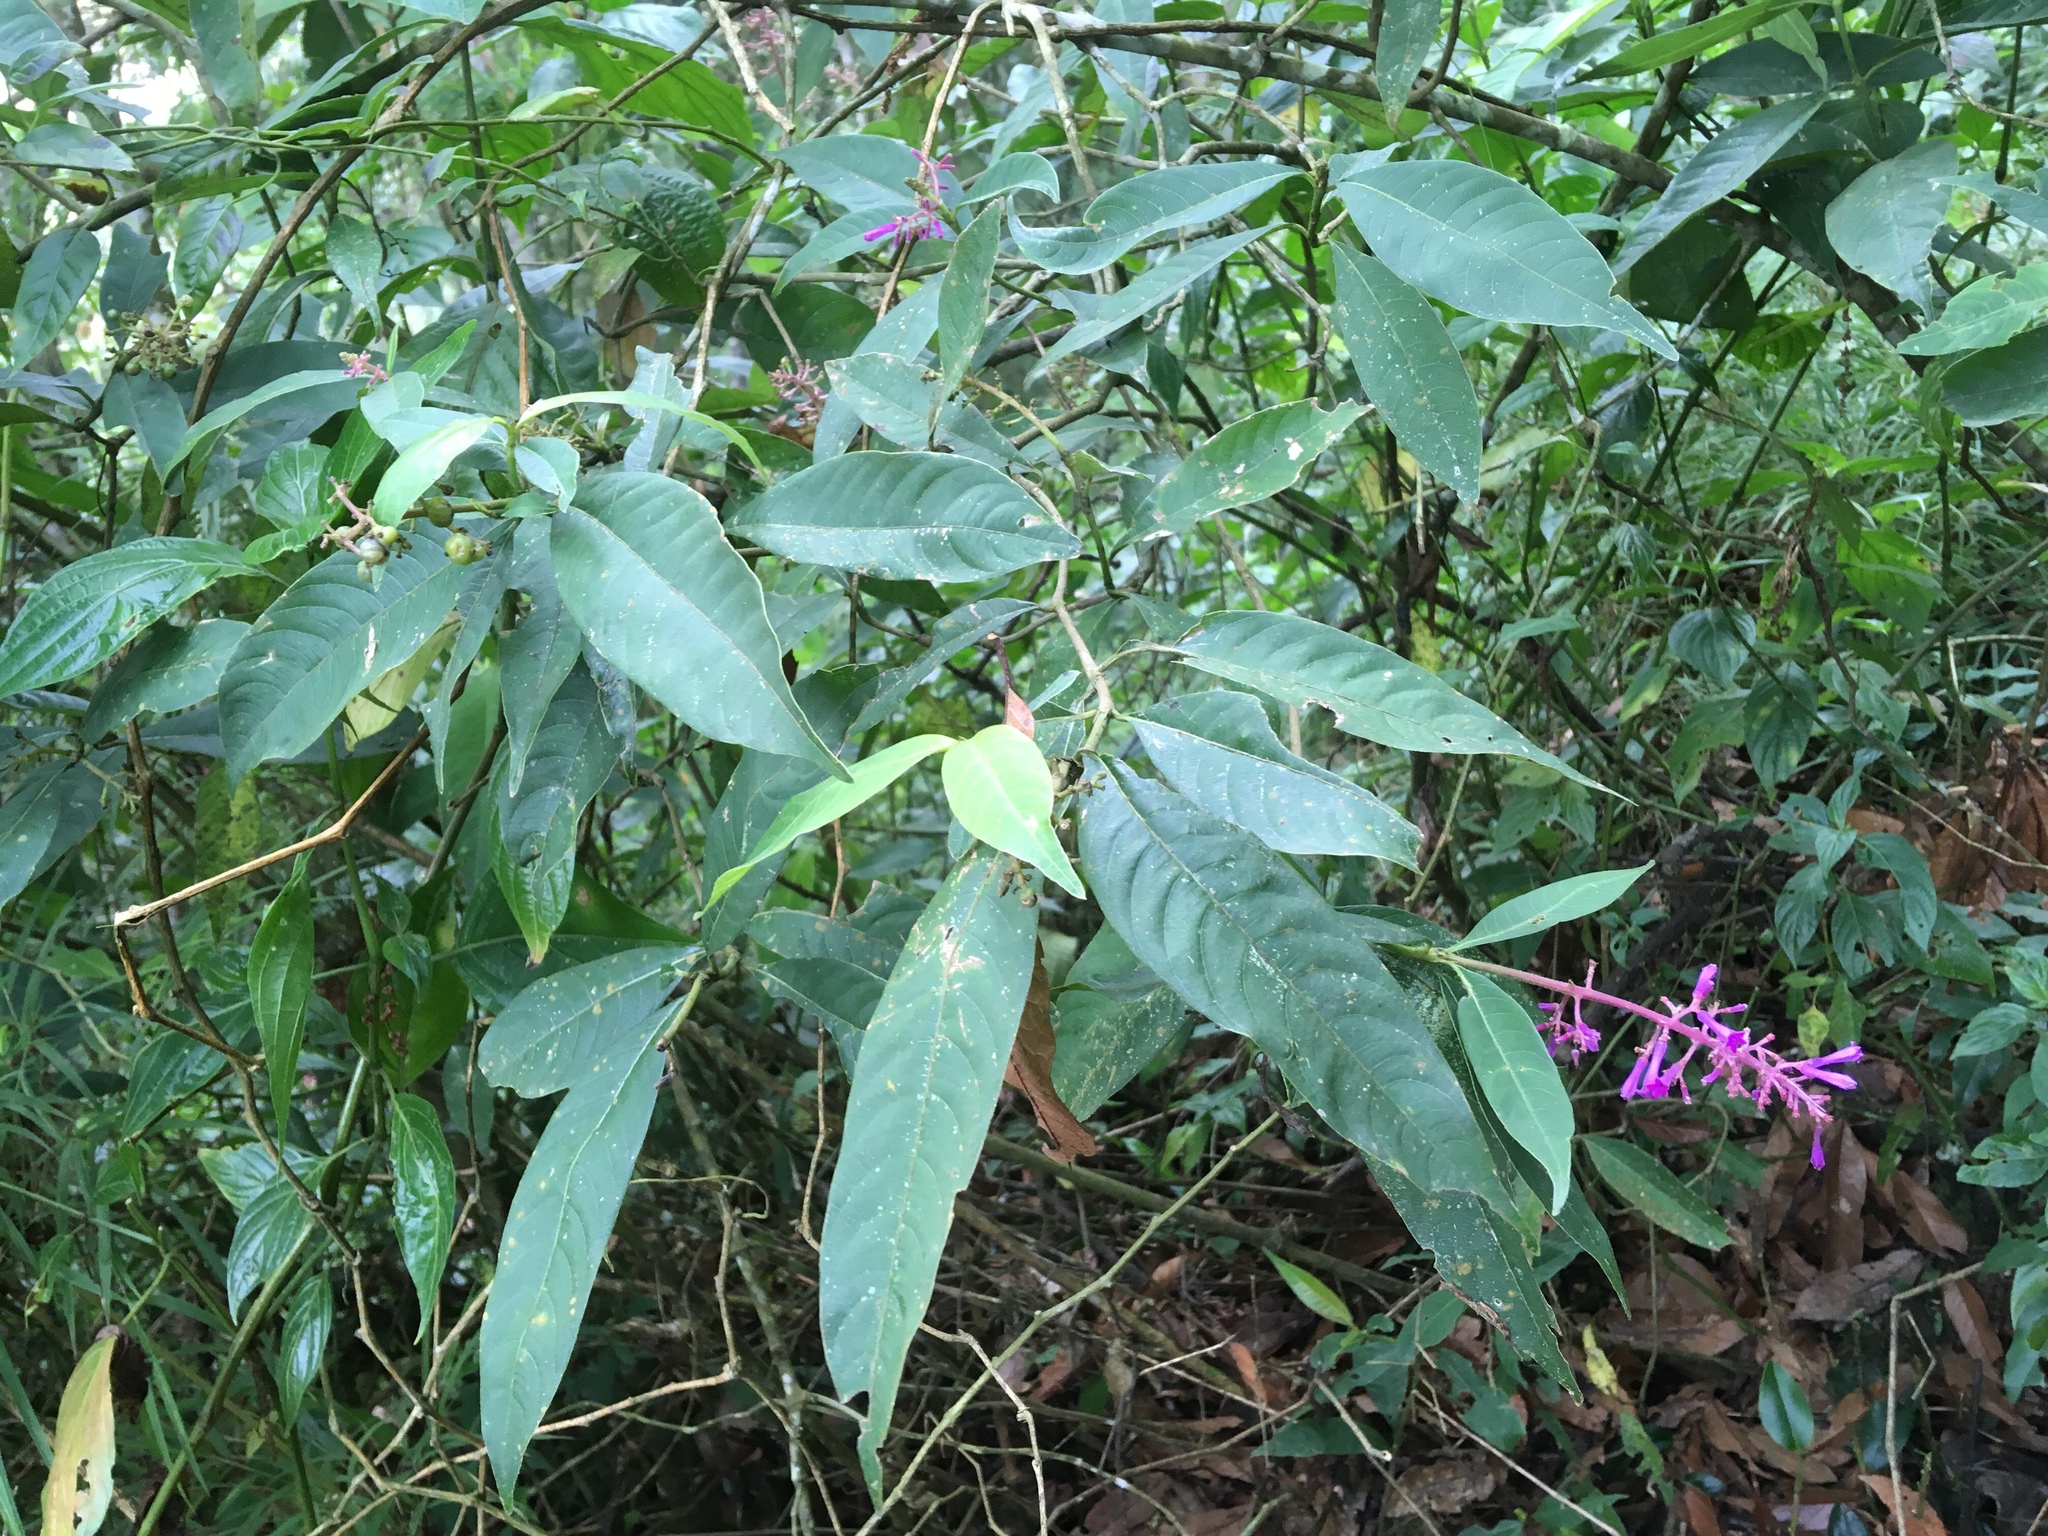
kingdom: Plantae
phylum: Tracheophyta
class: Magnoliopsida
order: Gentianales
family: Rubiaceae
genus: Palicourea
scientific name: Palicourea angustifolia
